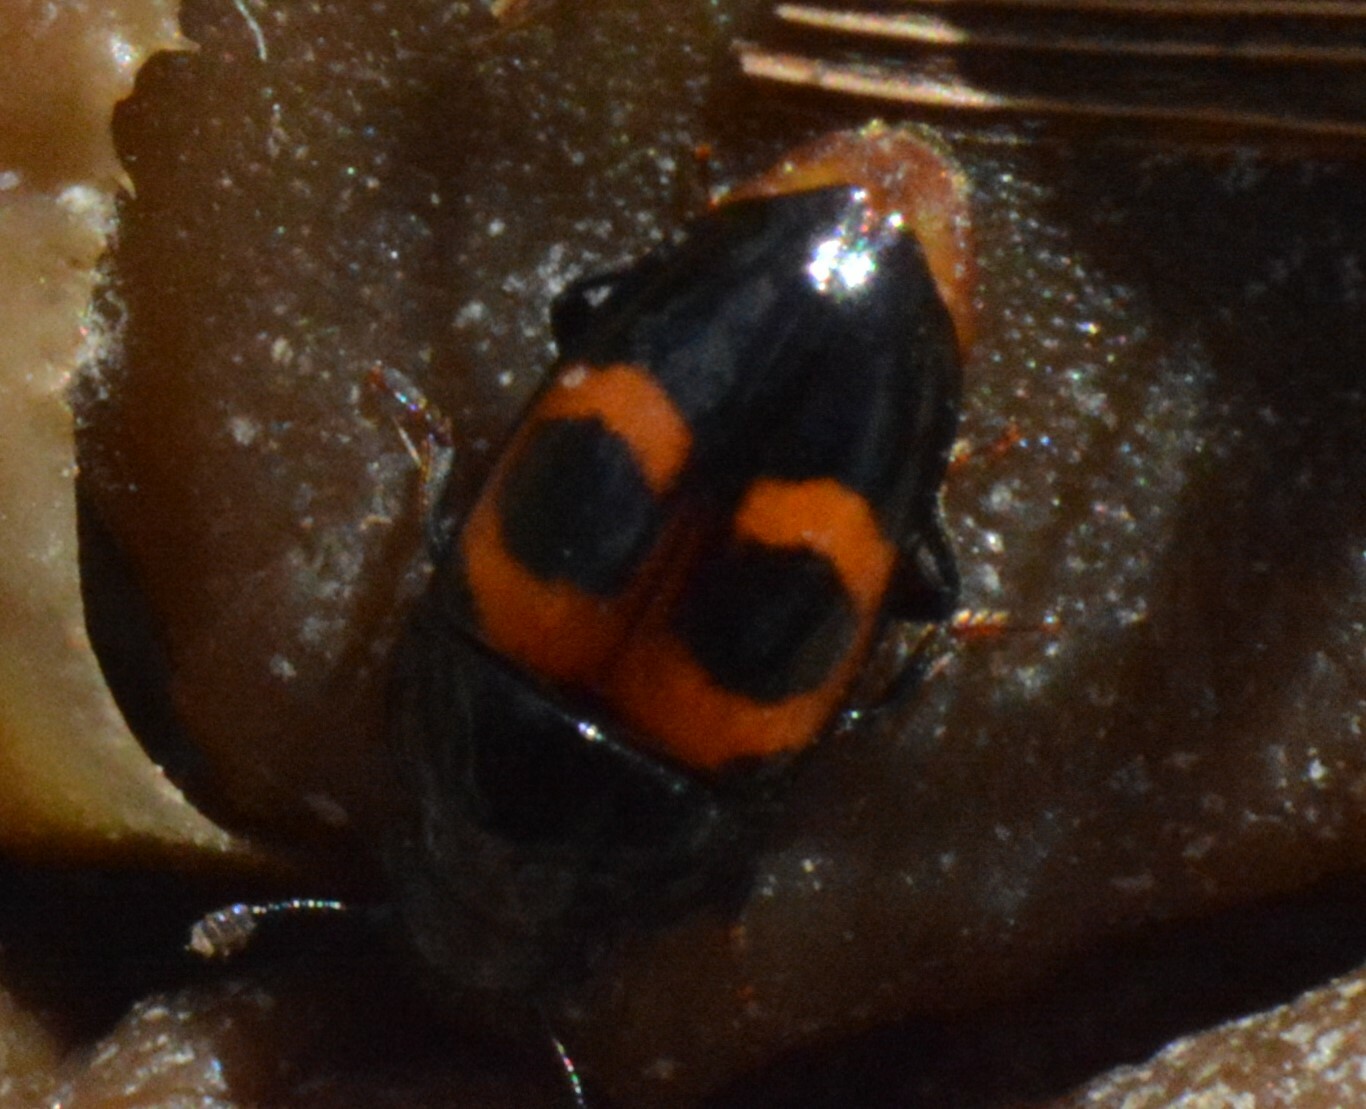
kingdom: Animalia
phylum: Arthropoda
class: Insecta
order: Coleoptera
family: Nitidulidae
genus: Glischrochilus
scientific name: Glischrochilus sanguinolentus
